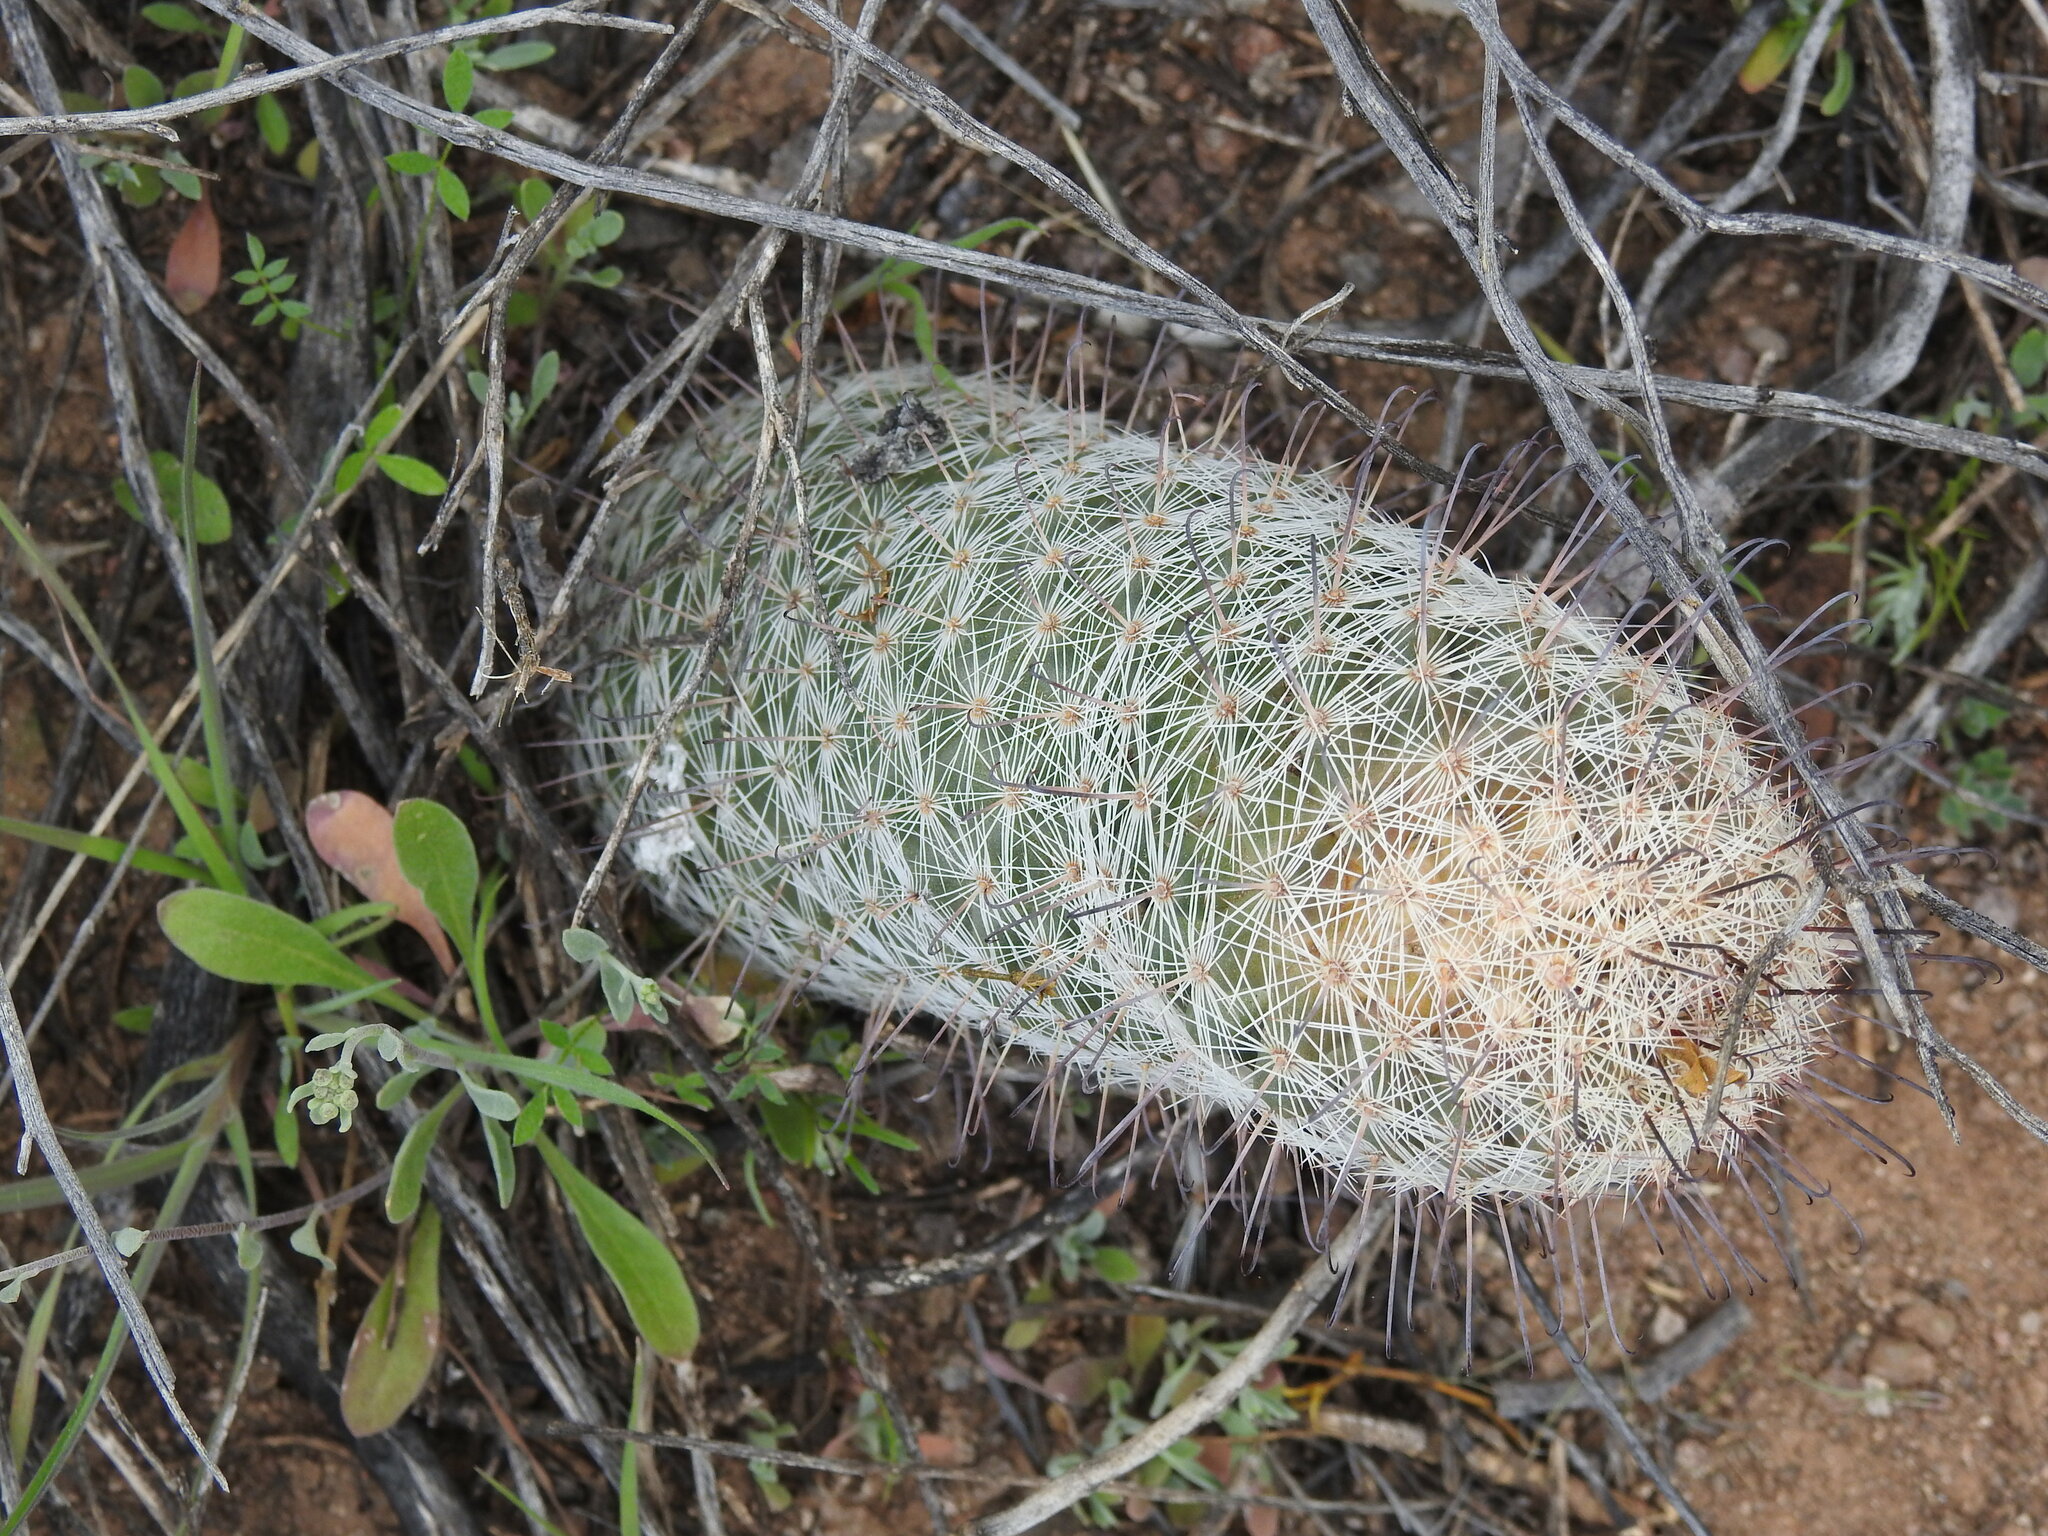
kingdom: Plantae
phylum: Tracheophyta
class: Magnoliopsida
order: Caryophyllales
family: Cactaceae
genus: Cochemiea
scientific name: Cochemiea grahamii
